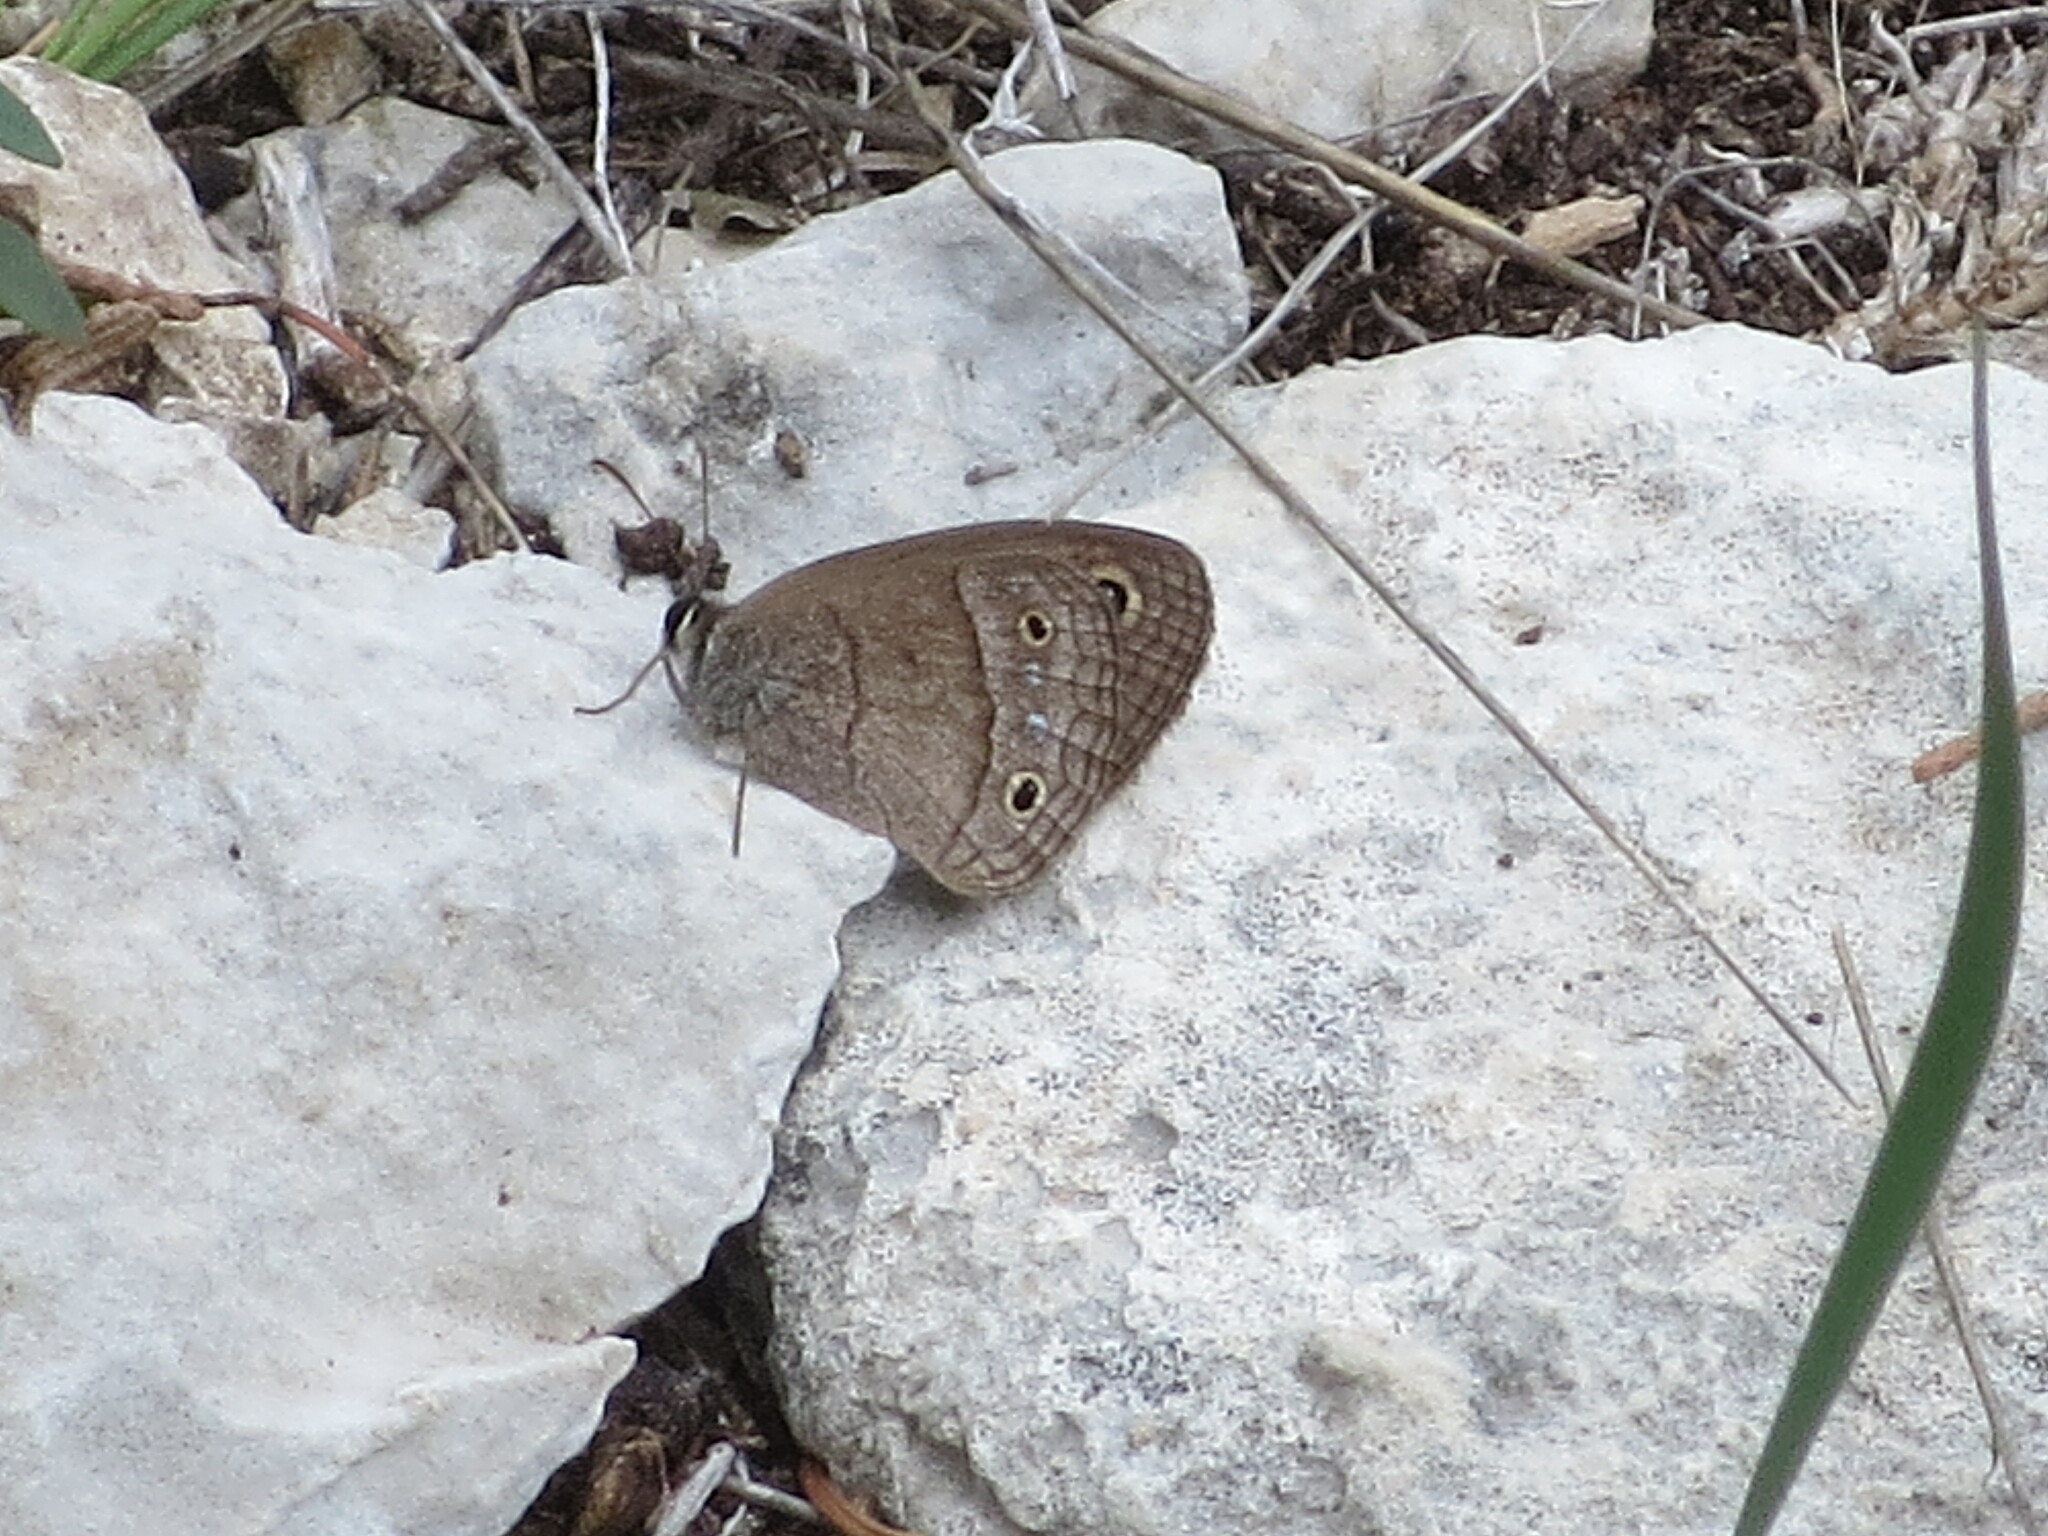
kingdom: Animalia
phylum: Arthropoda
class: Insecta
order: Lepidoptera
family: Nymphalidae
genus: Euptychia
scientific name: Euptychia Cissia rubricata
